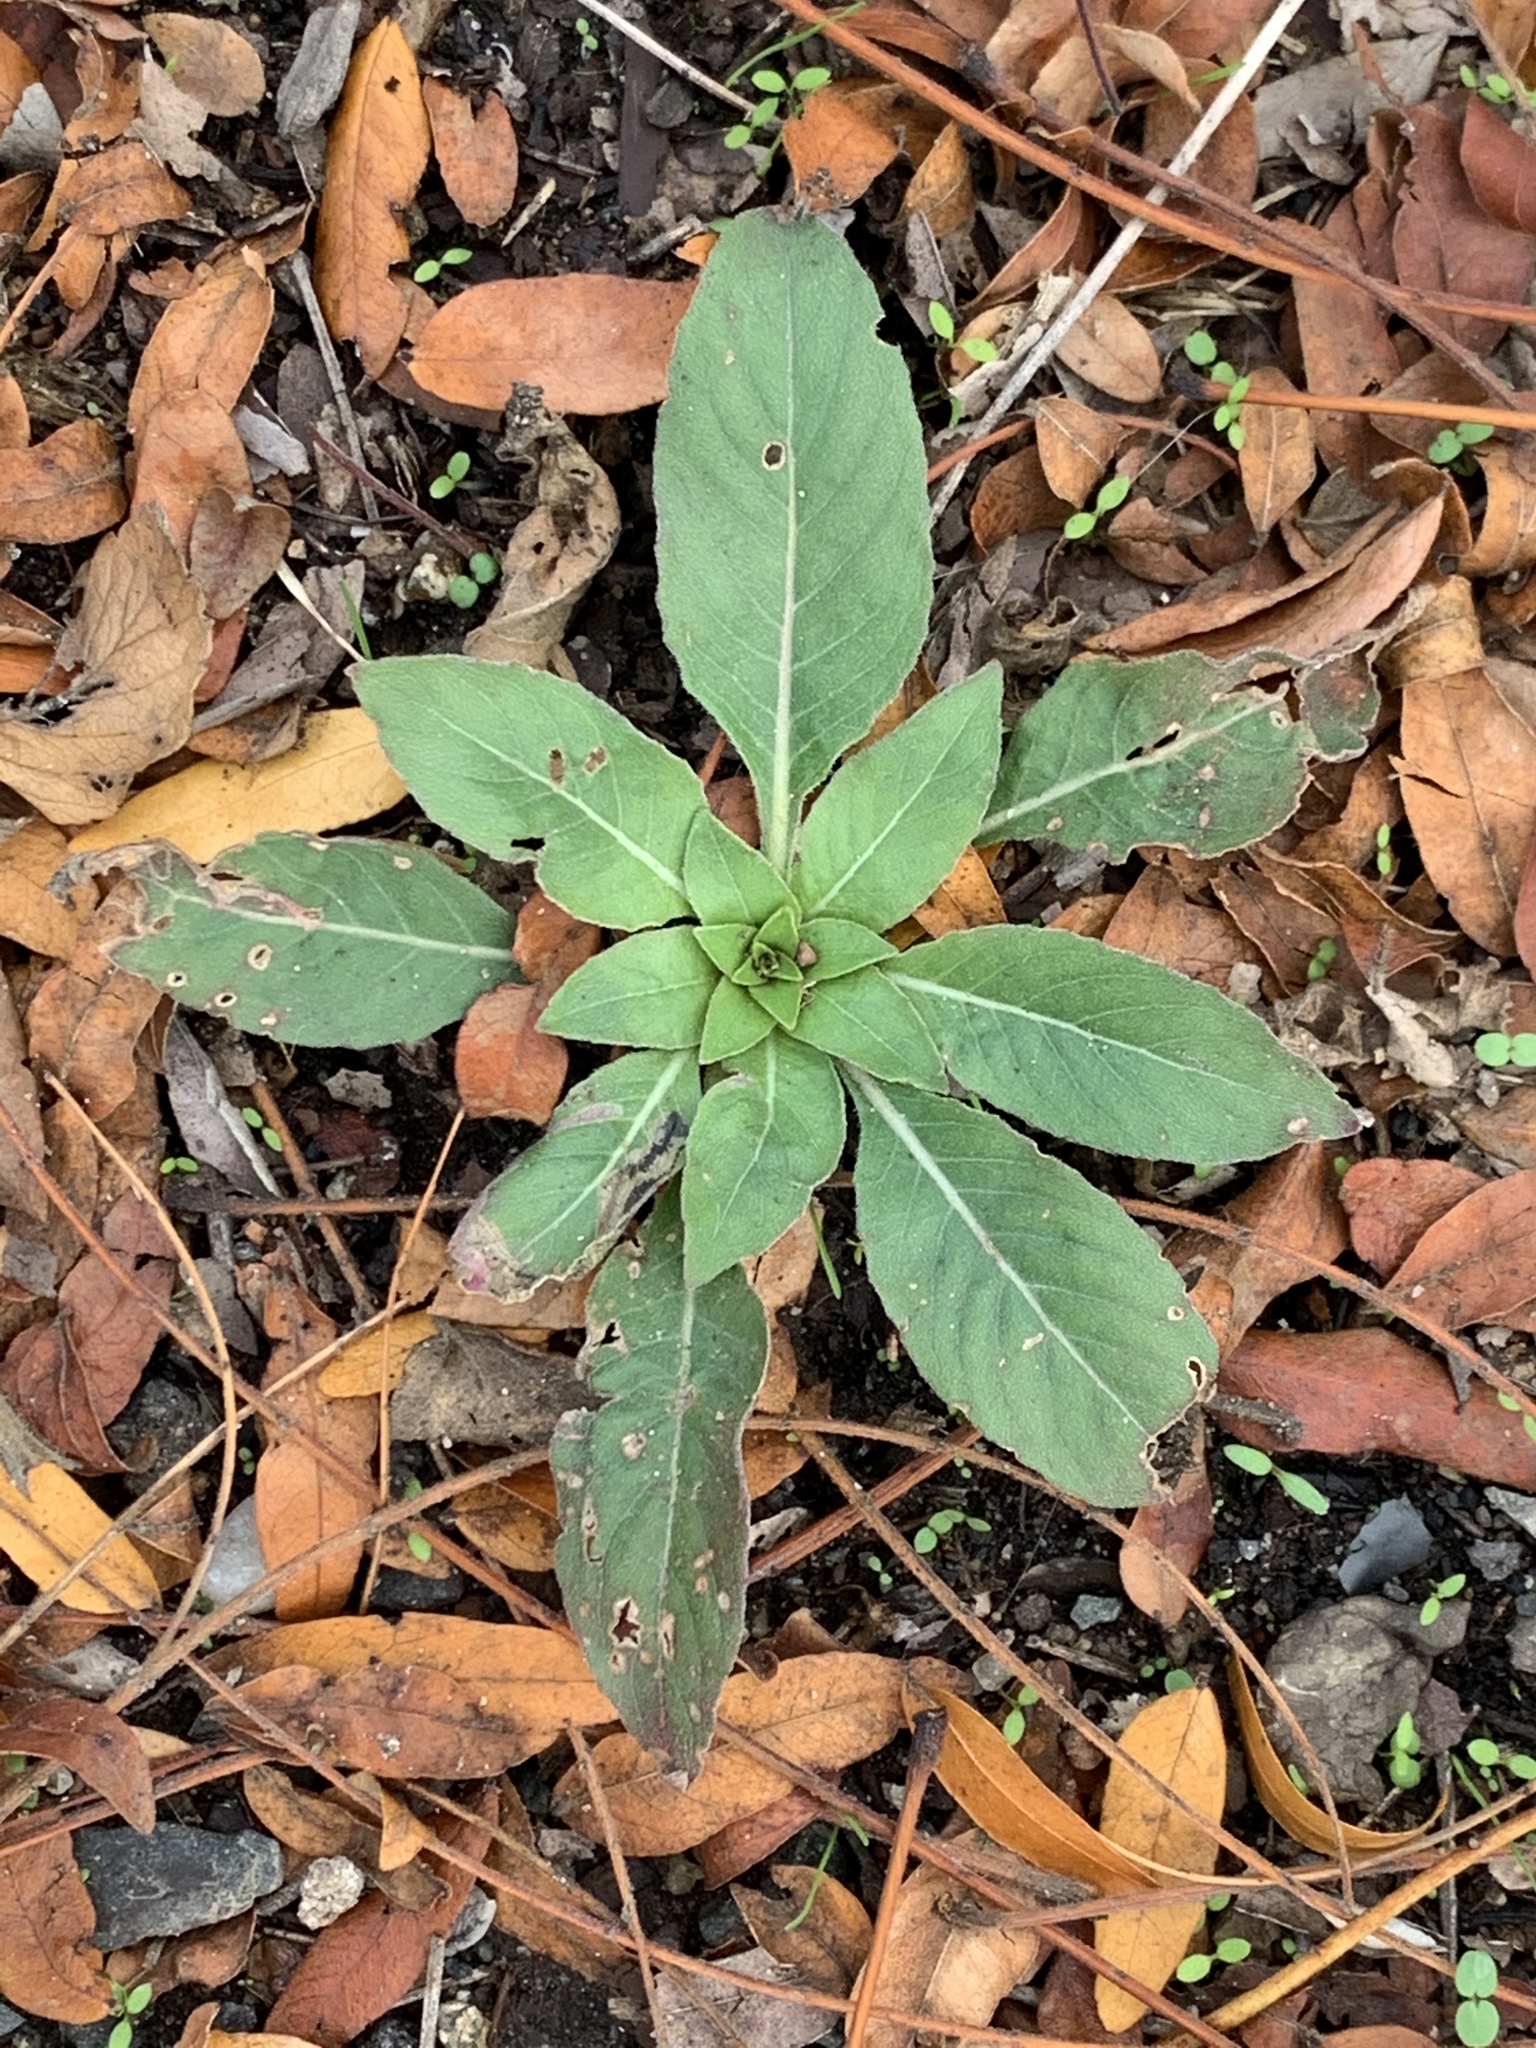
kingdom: Plantae
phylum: Tracheophyta
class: Magnoliopsida
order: Myrtales
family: Onagraceae
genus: Oenothera
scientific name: Oenothera biennis
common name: Common evening-primrose
